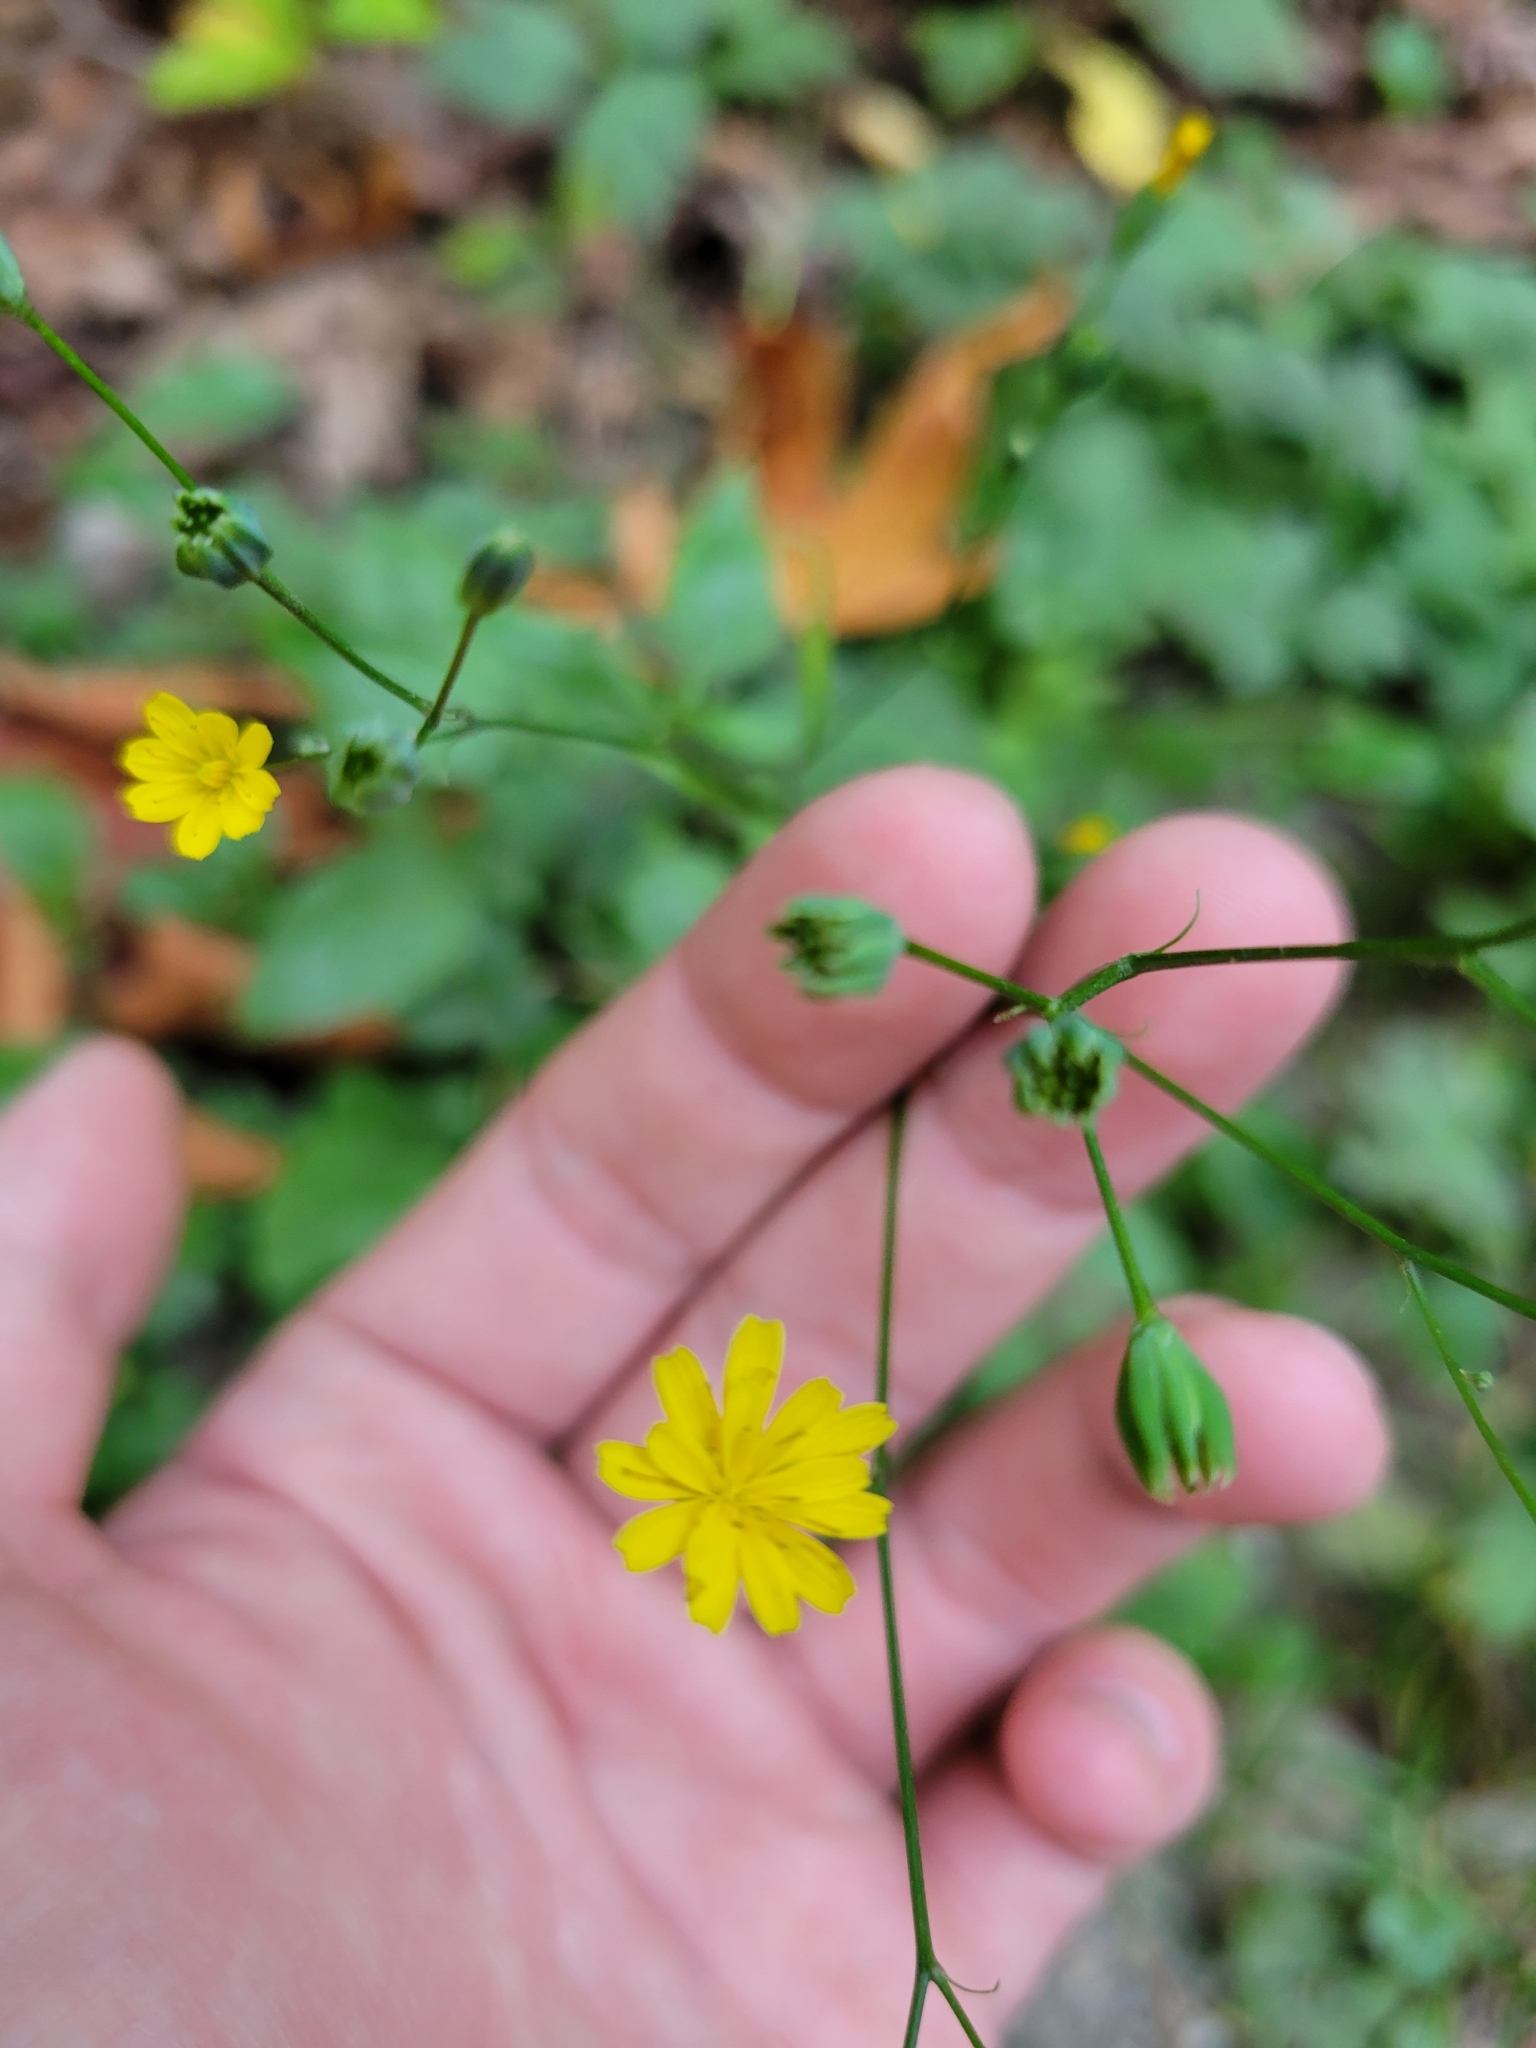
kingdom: Plantae
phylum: Tracheophyta
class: Magnoliopsida
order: Asterales
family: Asteraceae
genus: Lapsana
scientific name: Lapsana communis
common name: Nipplewort
